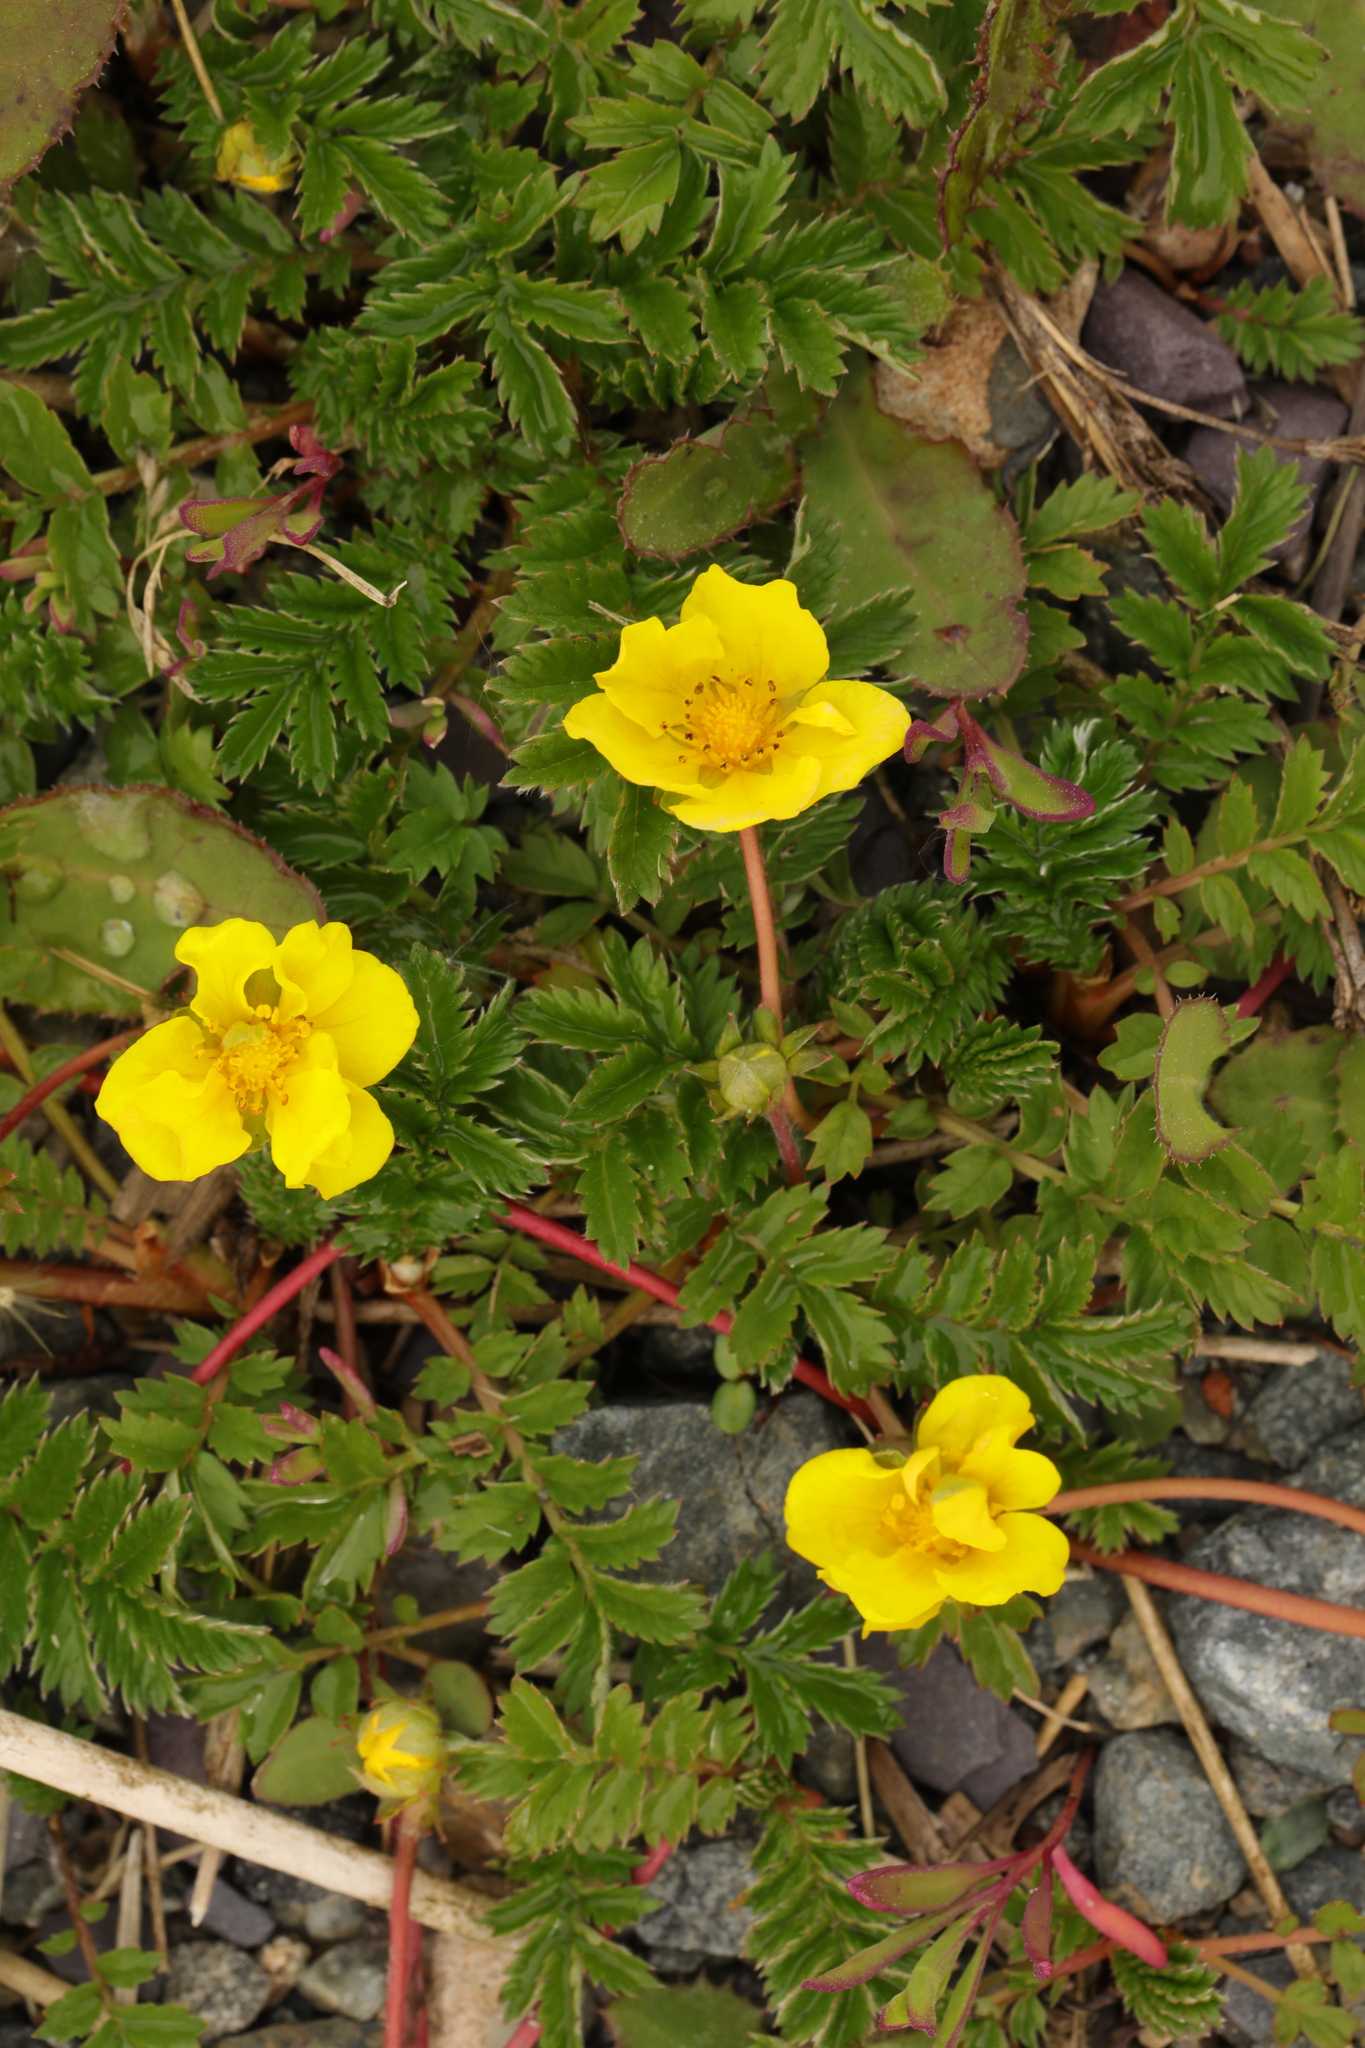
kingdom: Plantae
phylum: Tracheophyta
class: Magnoliopsida
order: Rosales
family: Rosaceae
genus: Argentina
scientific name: Argentina anserina
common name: Common silverweed
